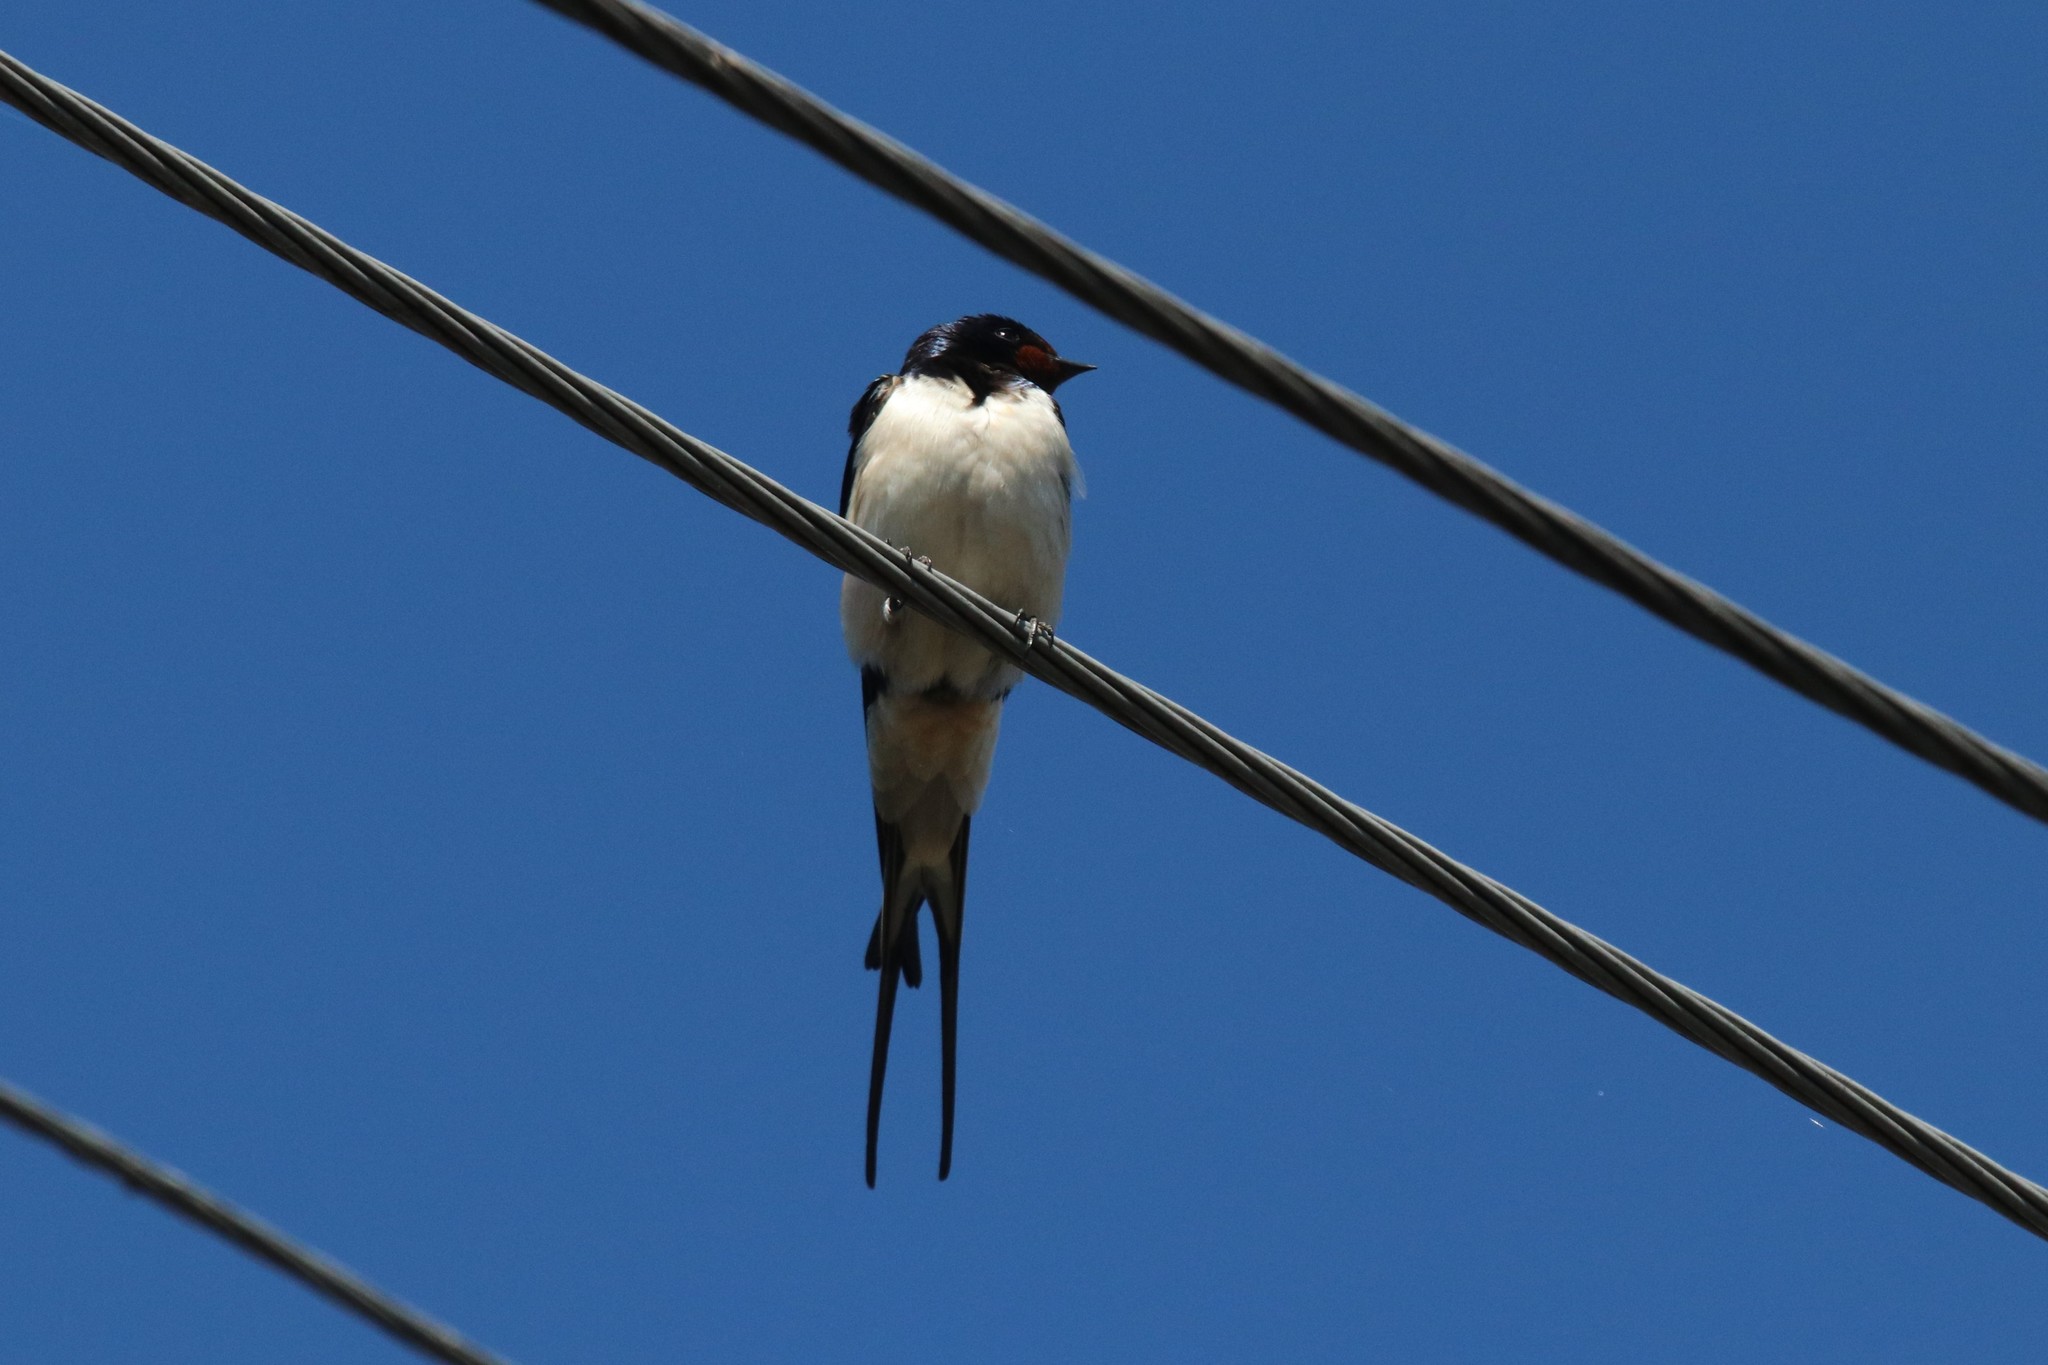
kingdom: Animalia
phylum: Chordata
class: Aves
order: Passeriformes
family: Hirundinidae
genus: Hirundo
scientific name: Hirundo rustica
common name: Barn swallow
